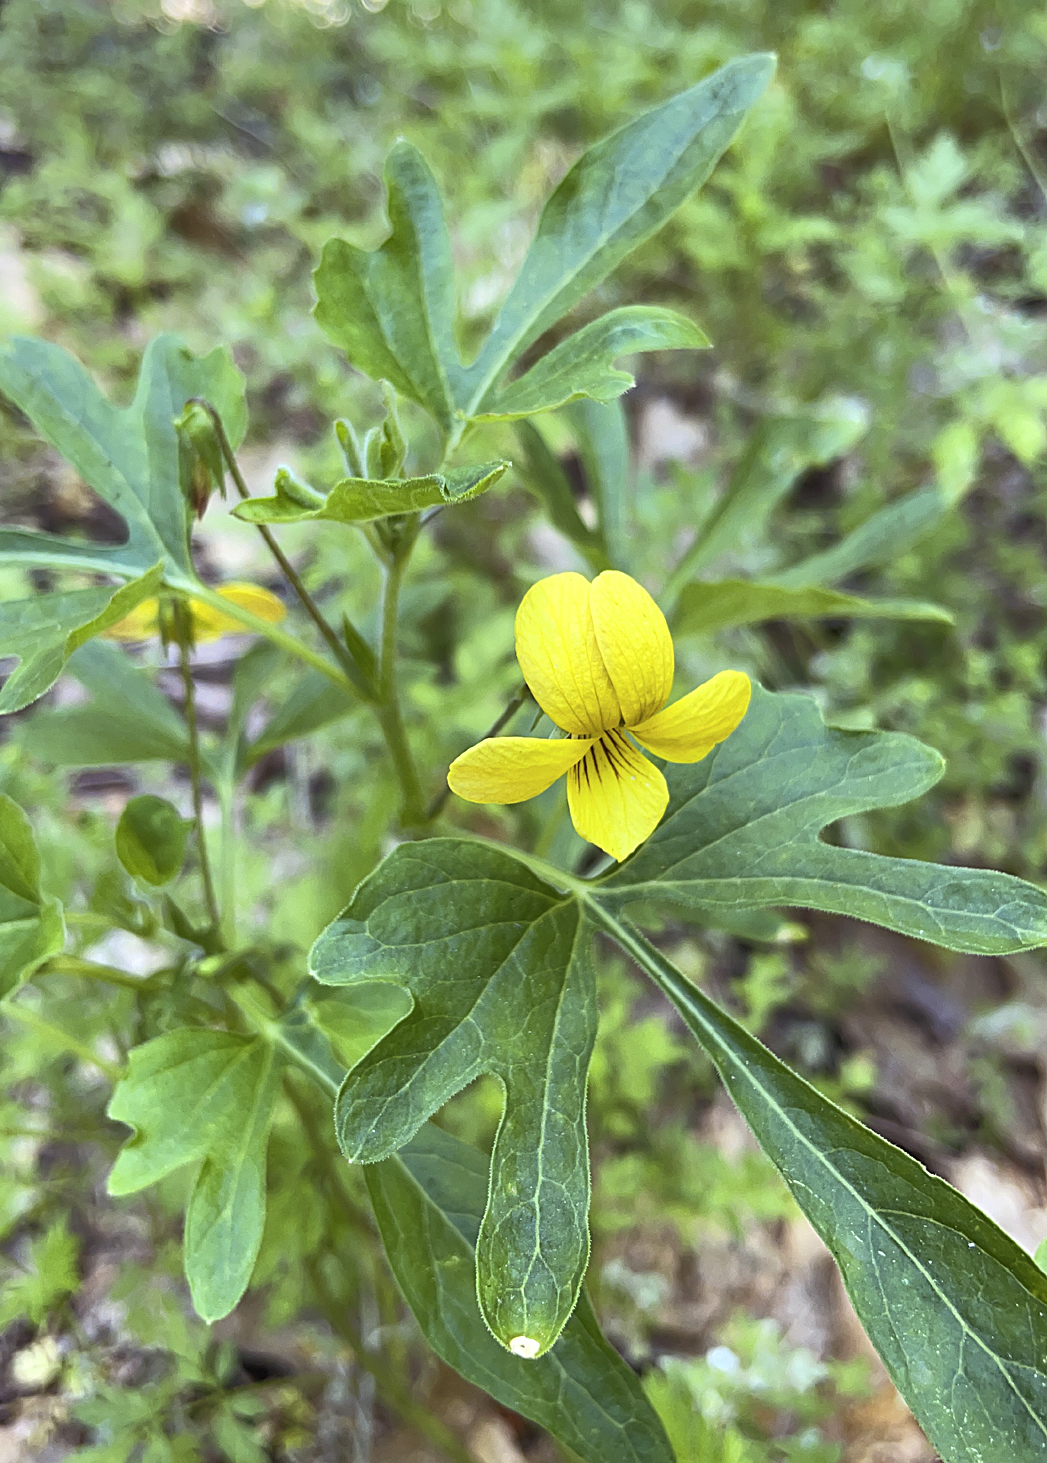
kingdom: Plantae
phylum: Tracheophyta
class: Magnoliopsida
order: Malpighiales
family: Violaceae
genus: Viola
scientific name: Viola lobata
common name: Pine violet
